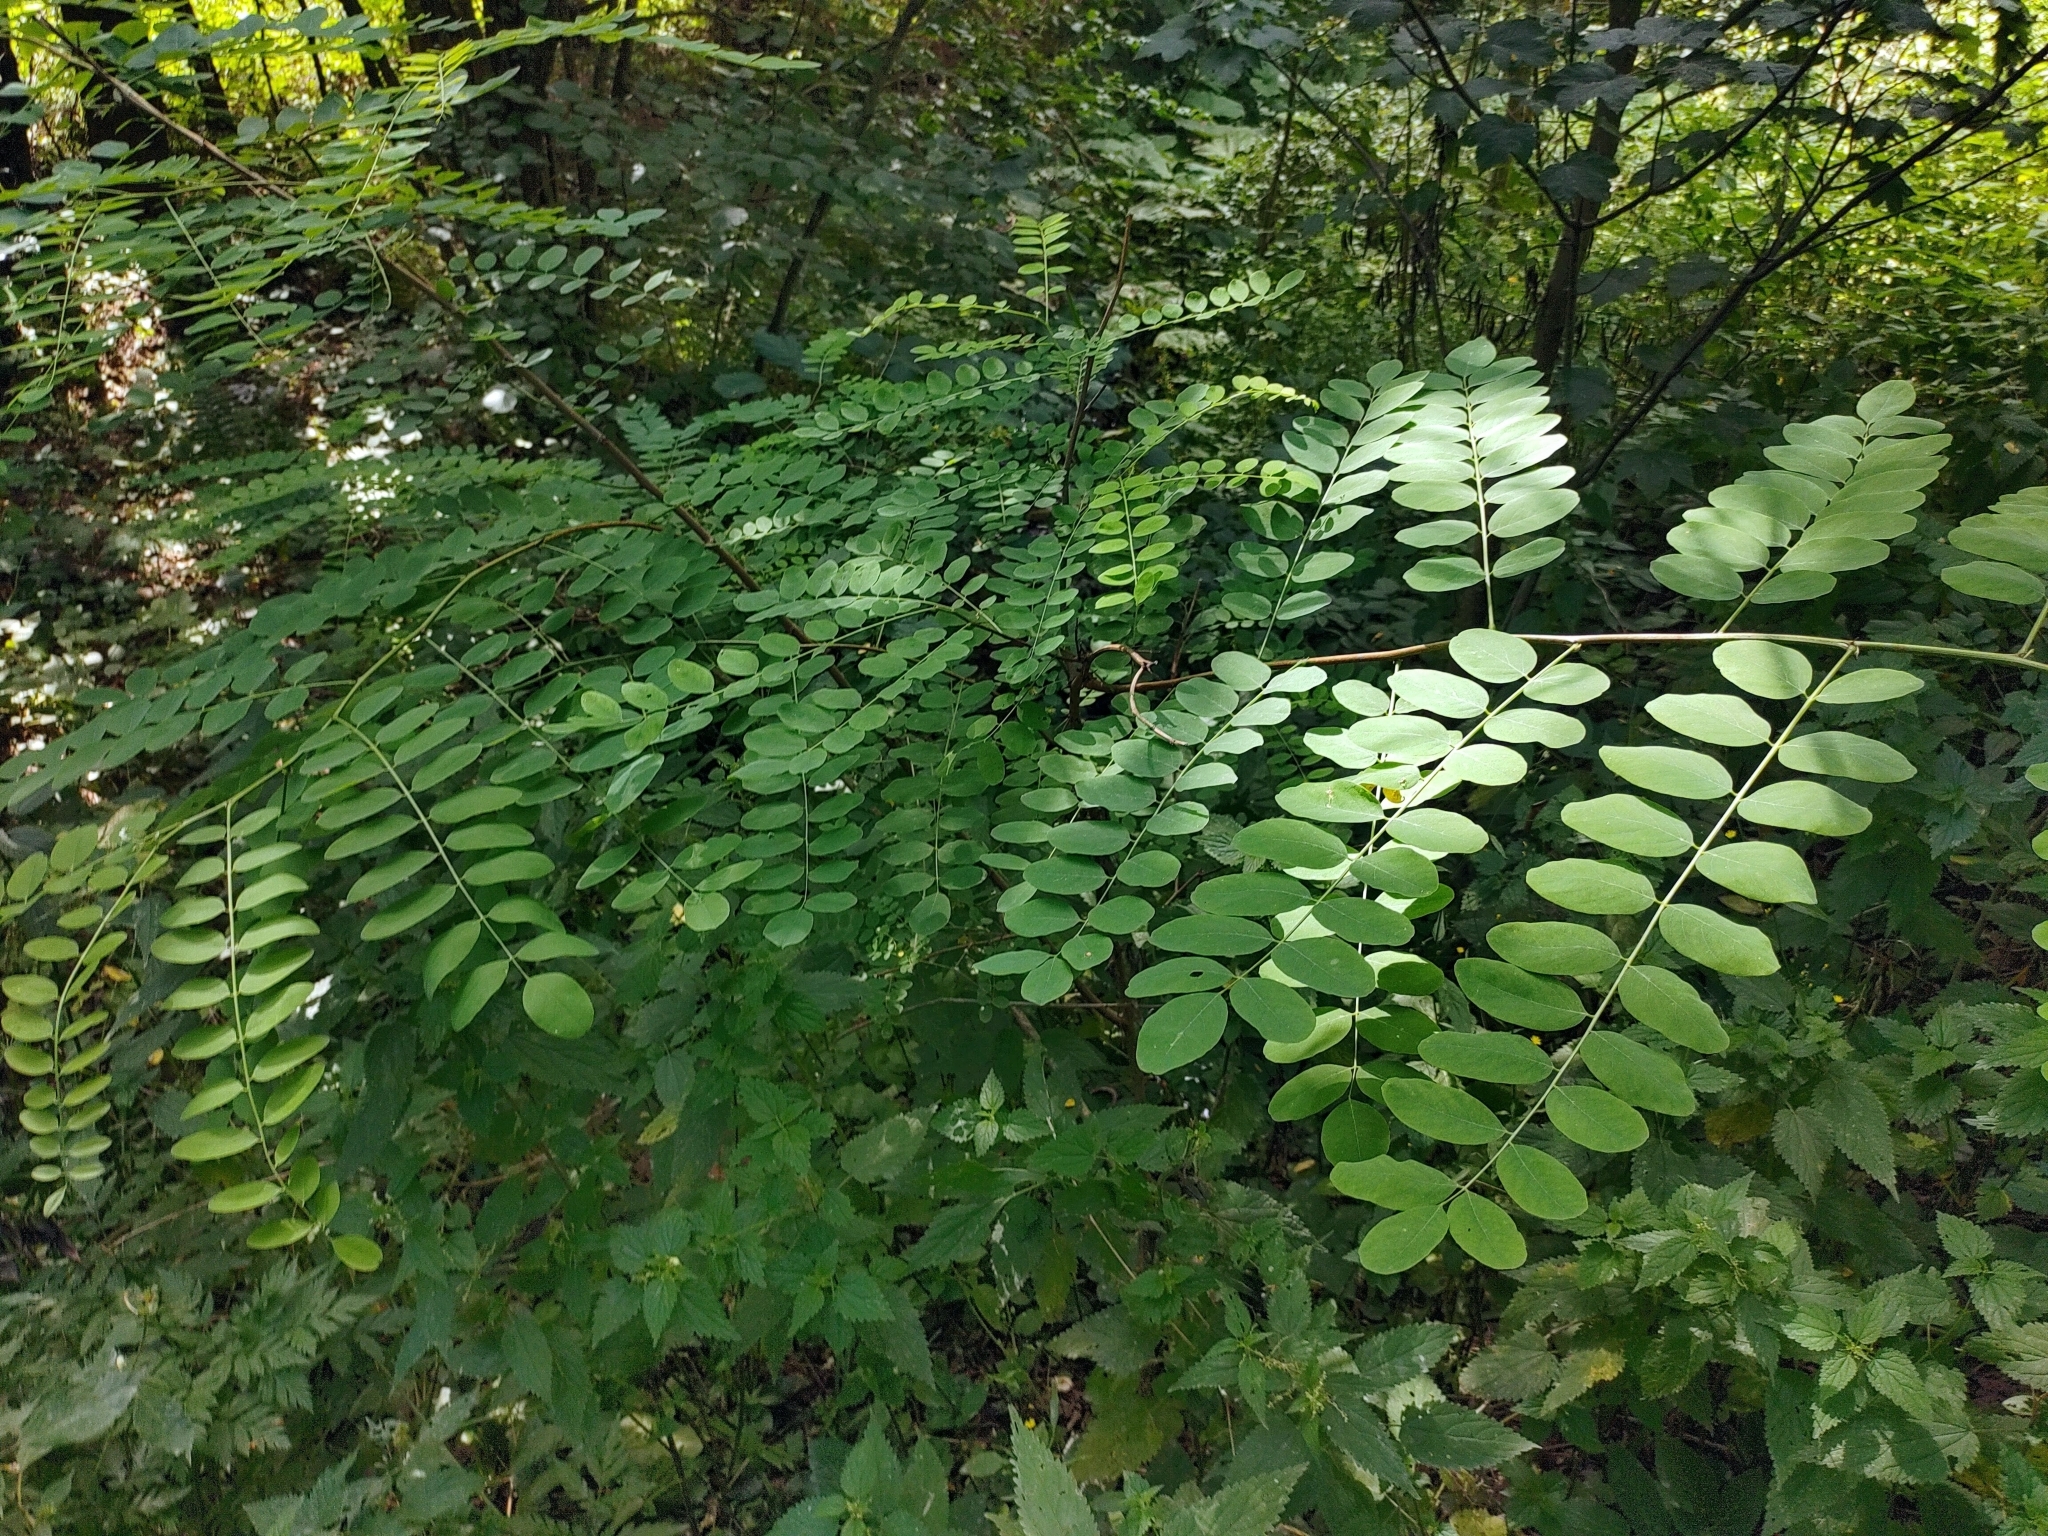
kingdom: Plantae
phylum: Tracheophyta
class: Magnoliopsida
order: Fabales
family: Fabaceae
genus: Robinia
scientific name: Robinia pseudoacacia
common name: Black locust
